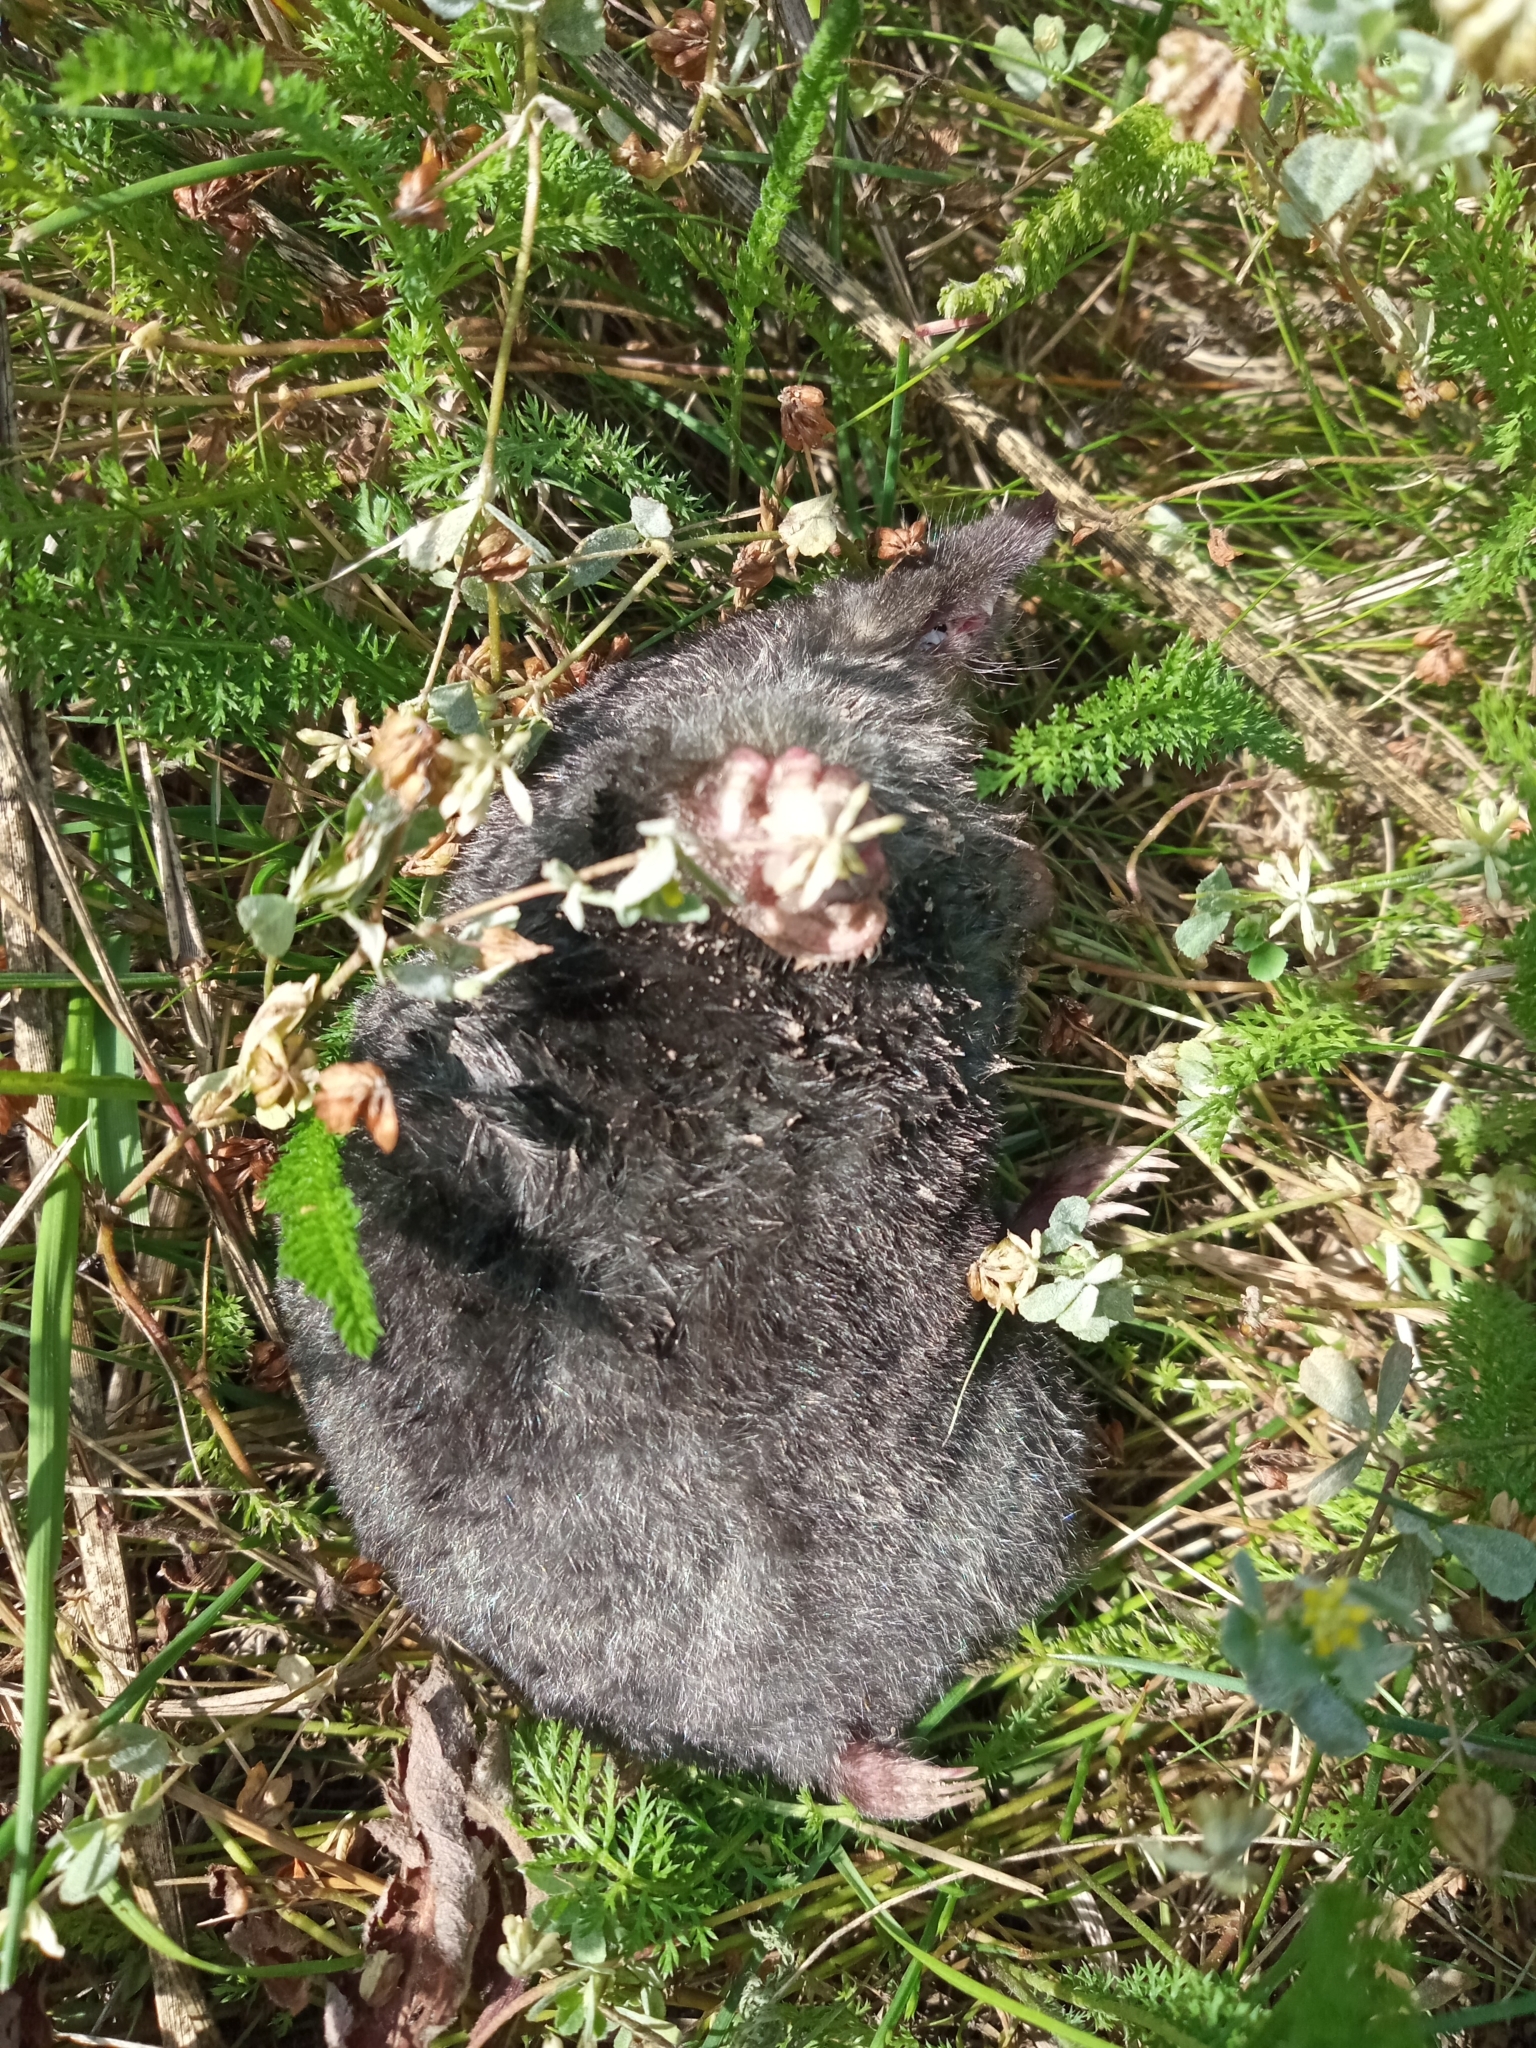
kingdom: Animalia
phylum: Chordata
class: Mammalia
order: Soricomorpha
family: Talpidae
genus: Talpa
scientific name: Talpa europaea
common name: European mole
